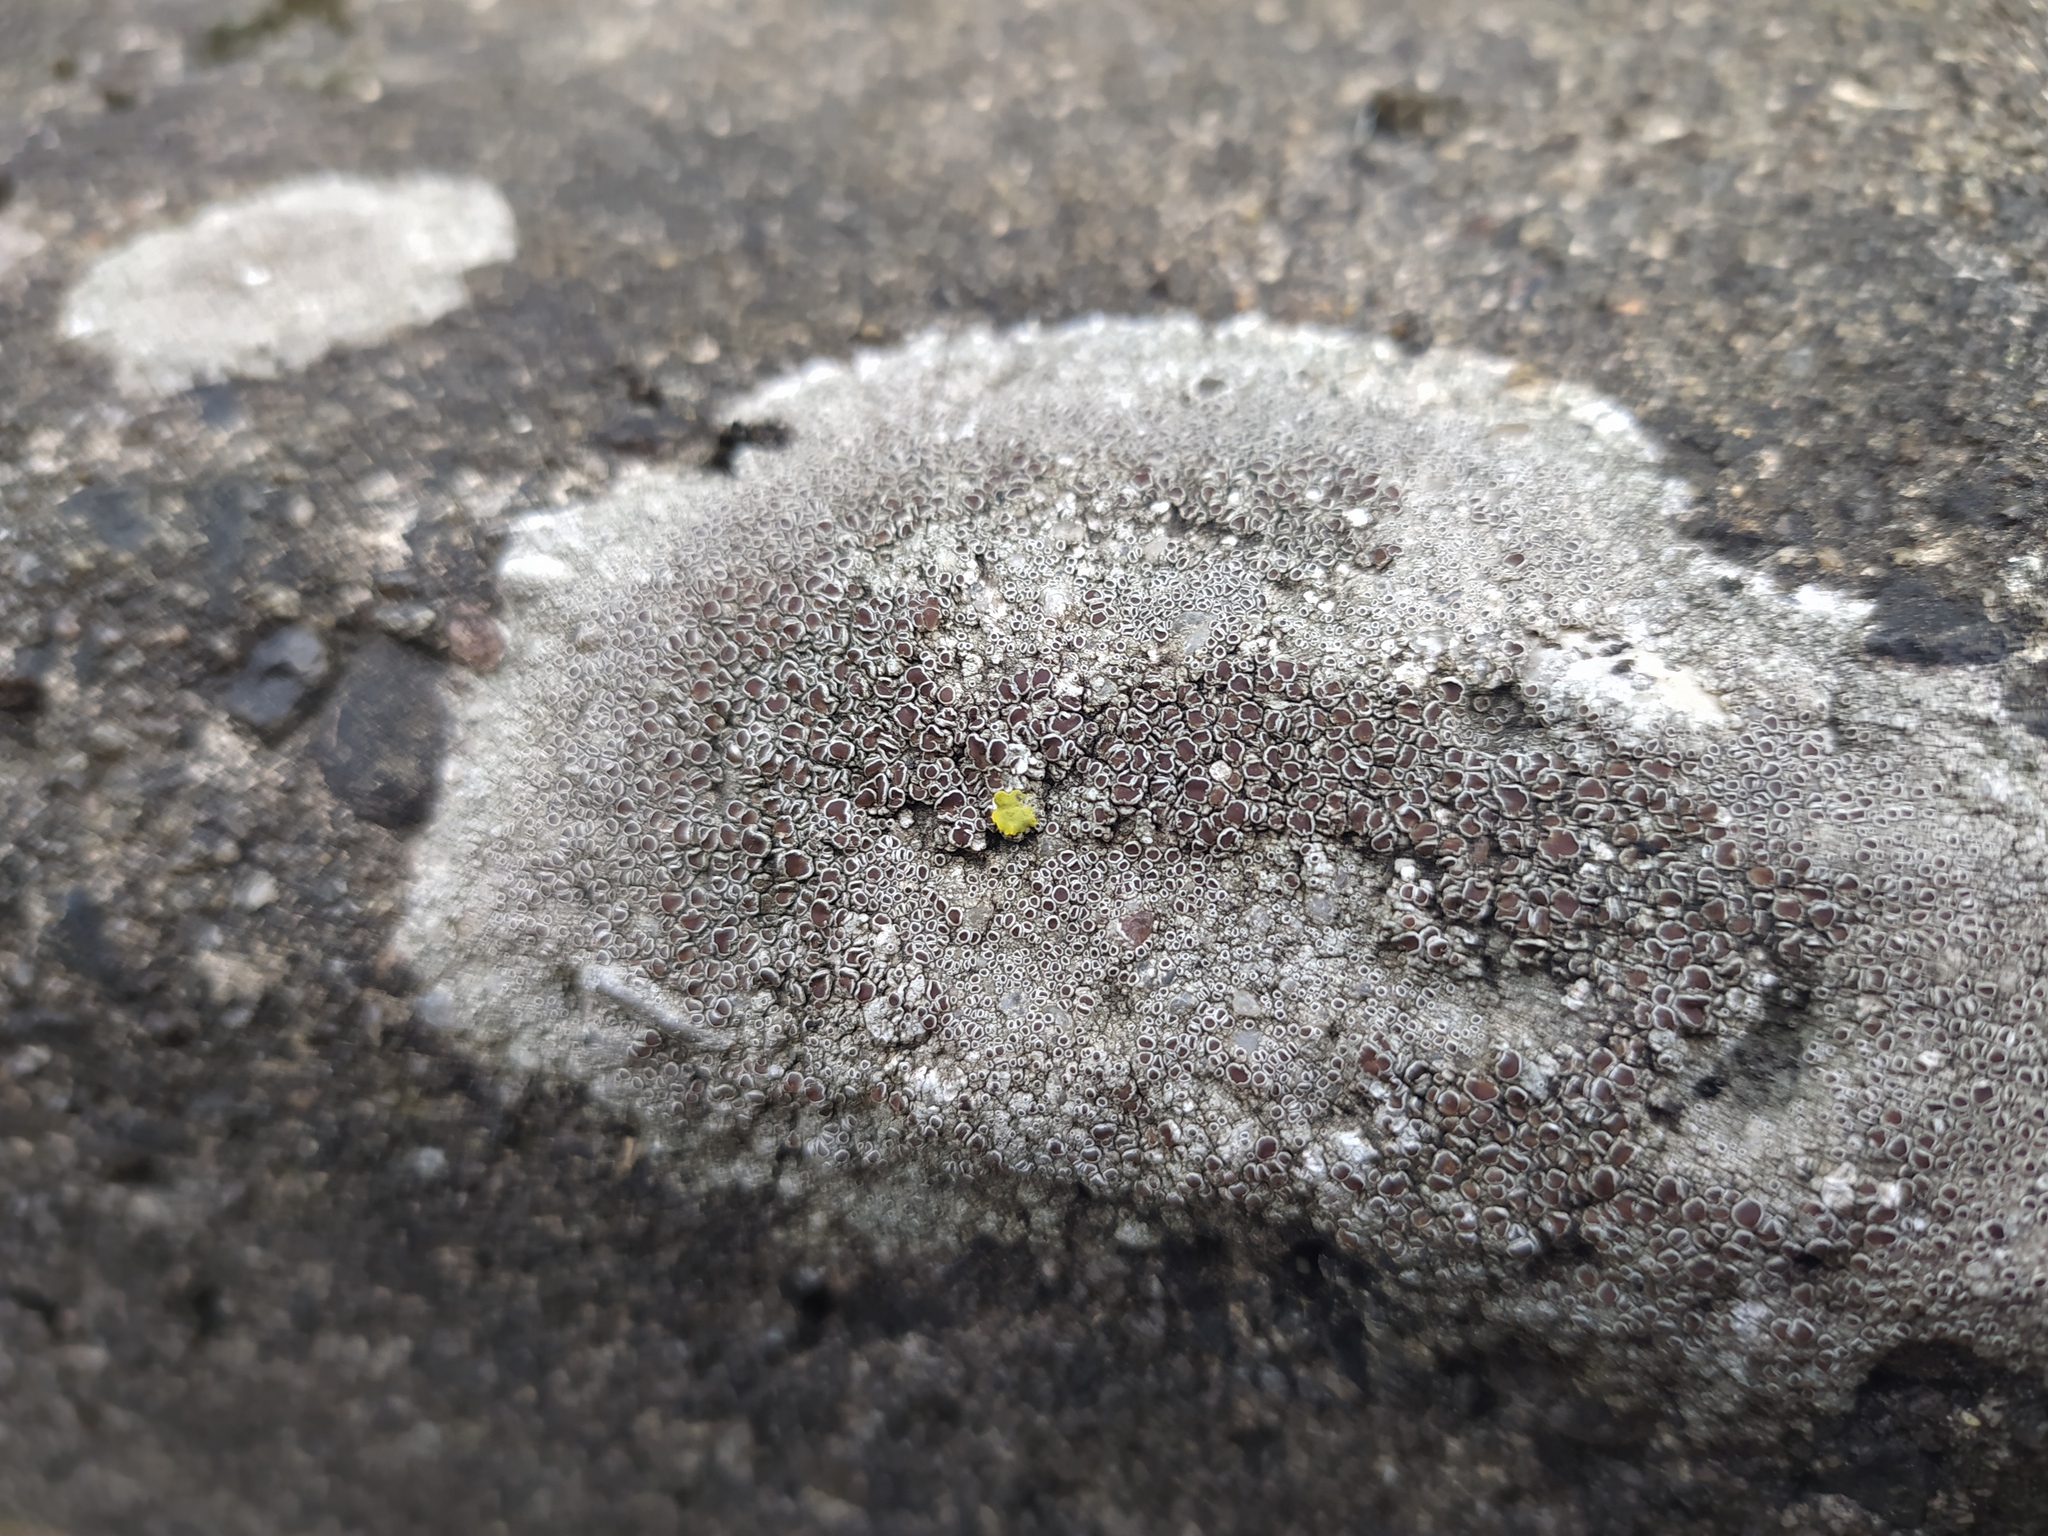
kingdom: Fungi
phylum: Ascomycota
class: Lecanoromycetes
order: Lecanorales
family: Lecanoraceae
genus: Lecanora
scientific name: Lecanora campestris
